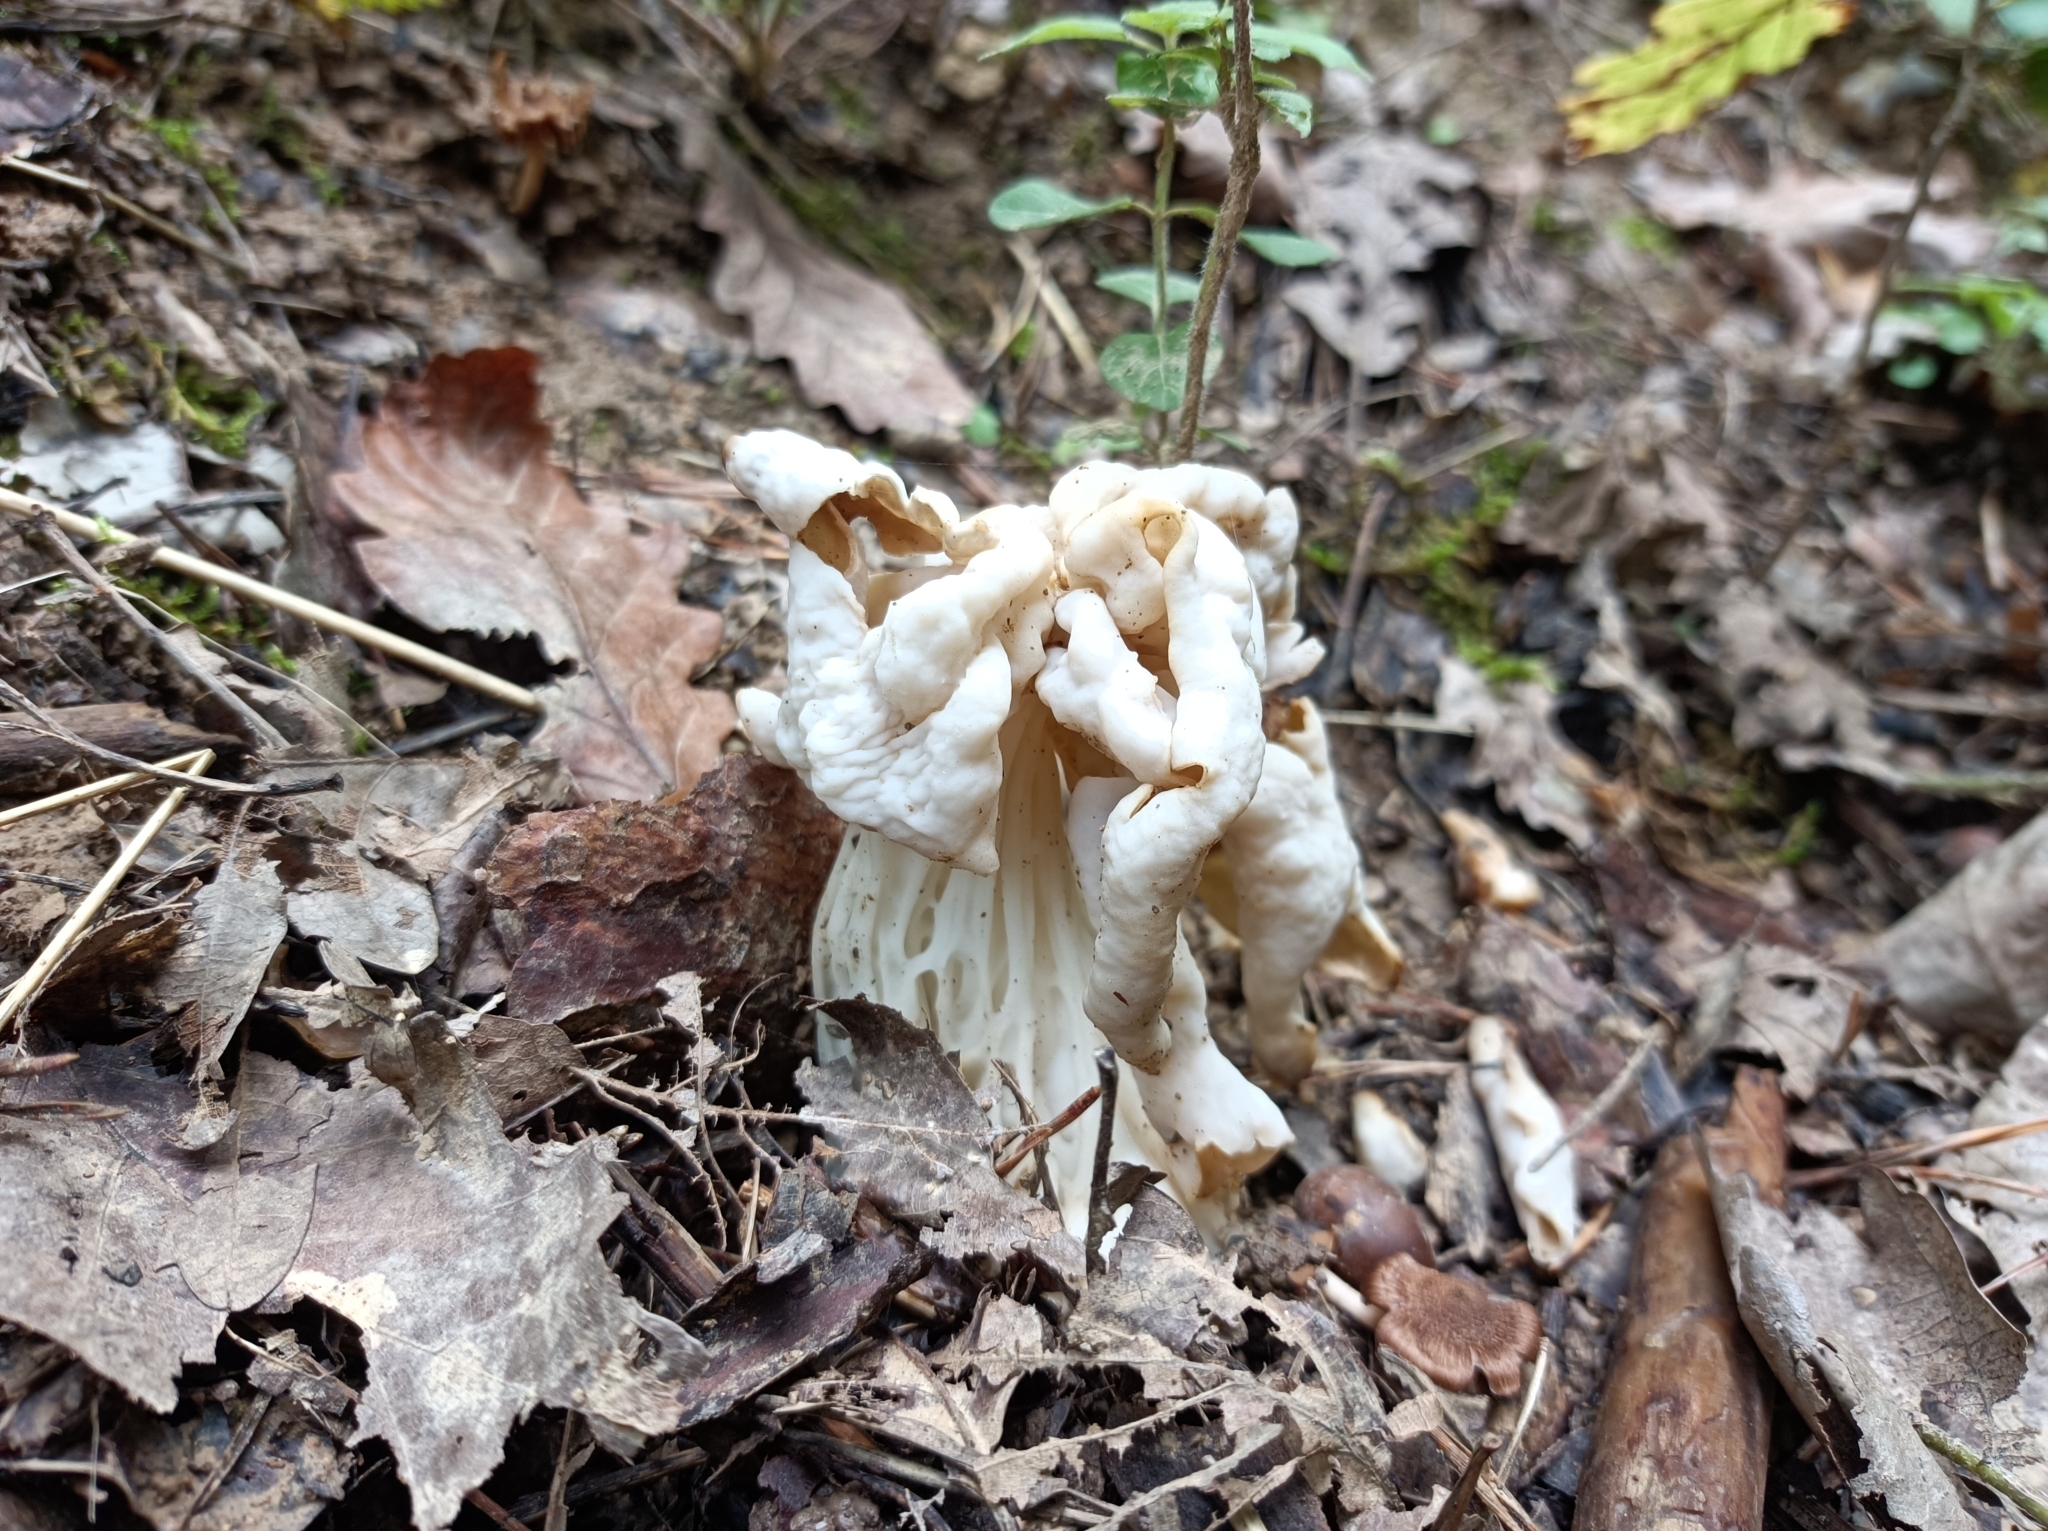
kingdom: Fungi
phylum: Ascomycota
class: Pezizomycetes
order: Pezizales
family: Helvellaceae
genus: Helvella
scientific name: Helvella crispa
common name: White saddle
